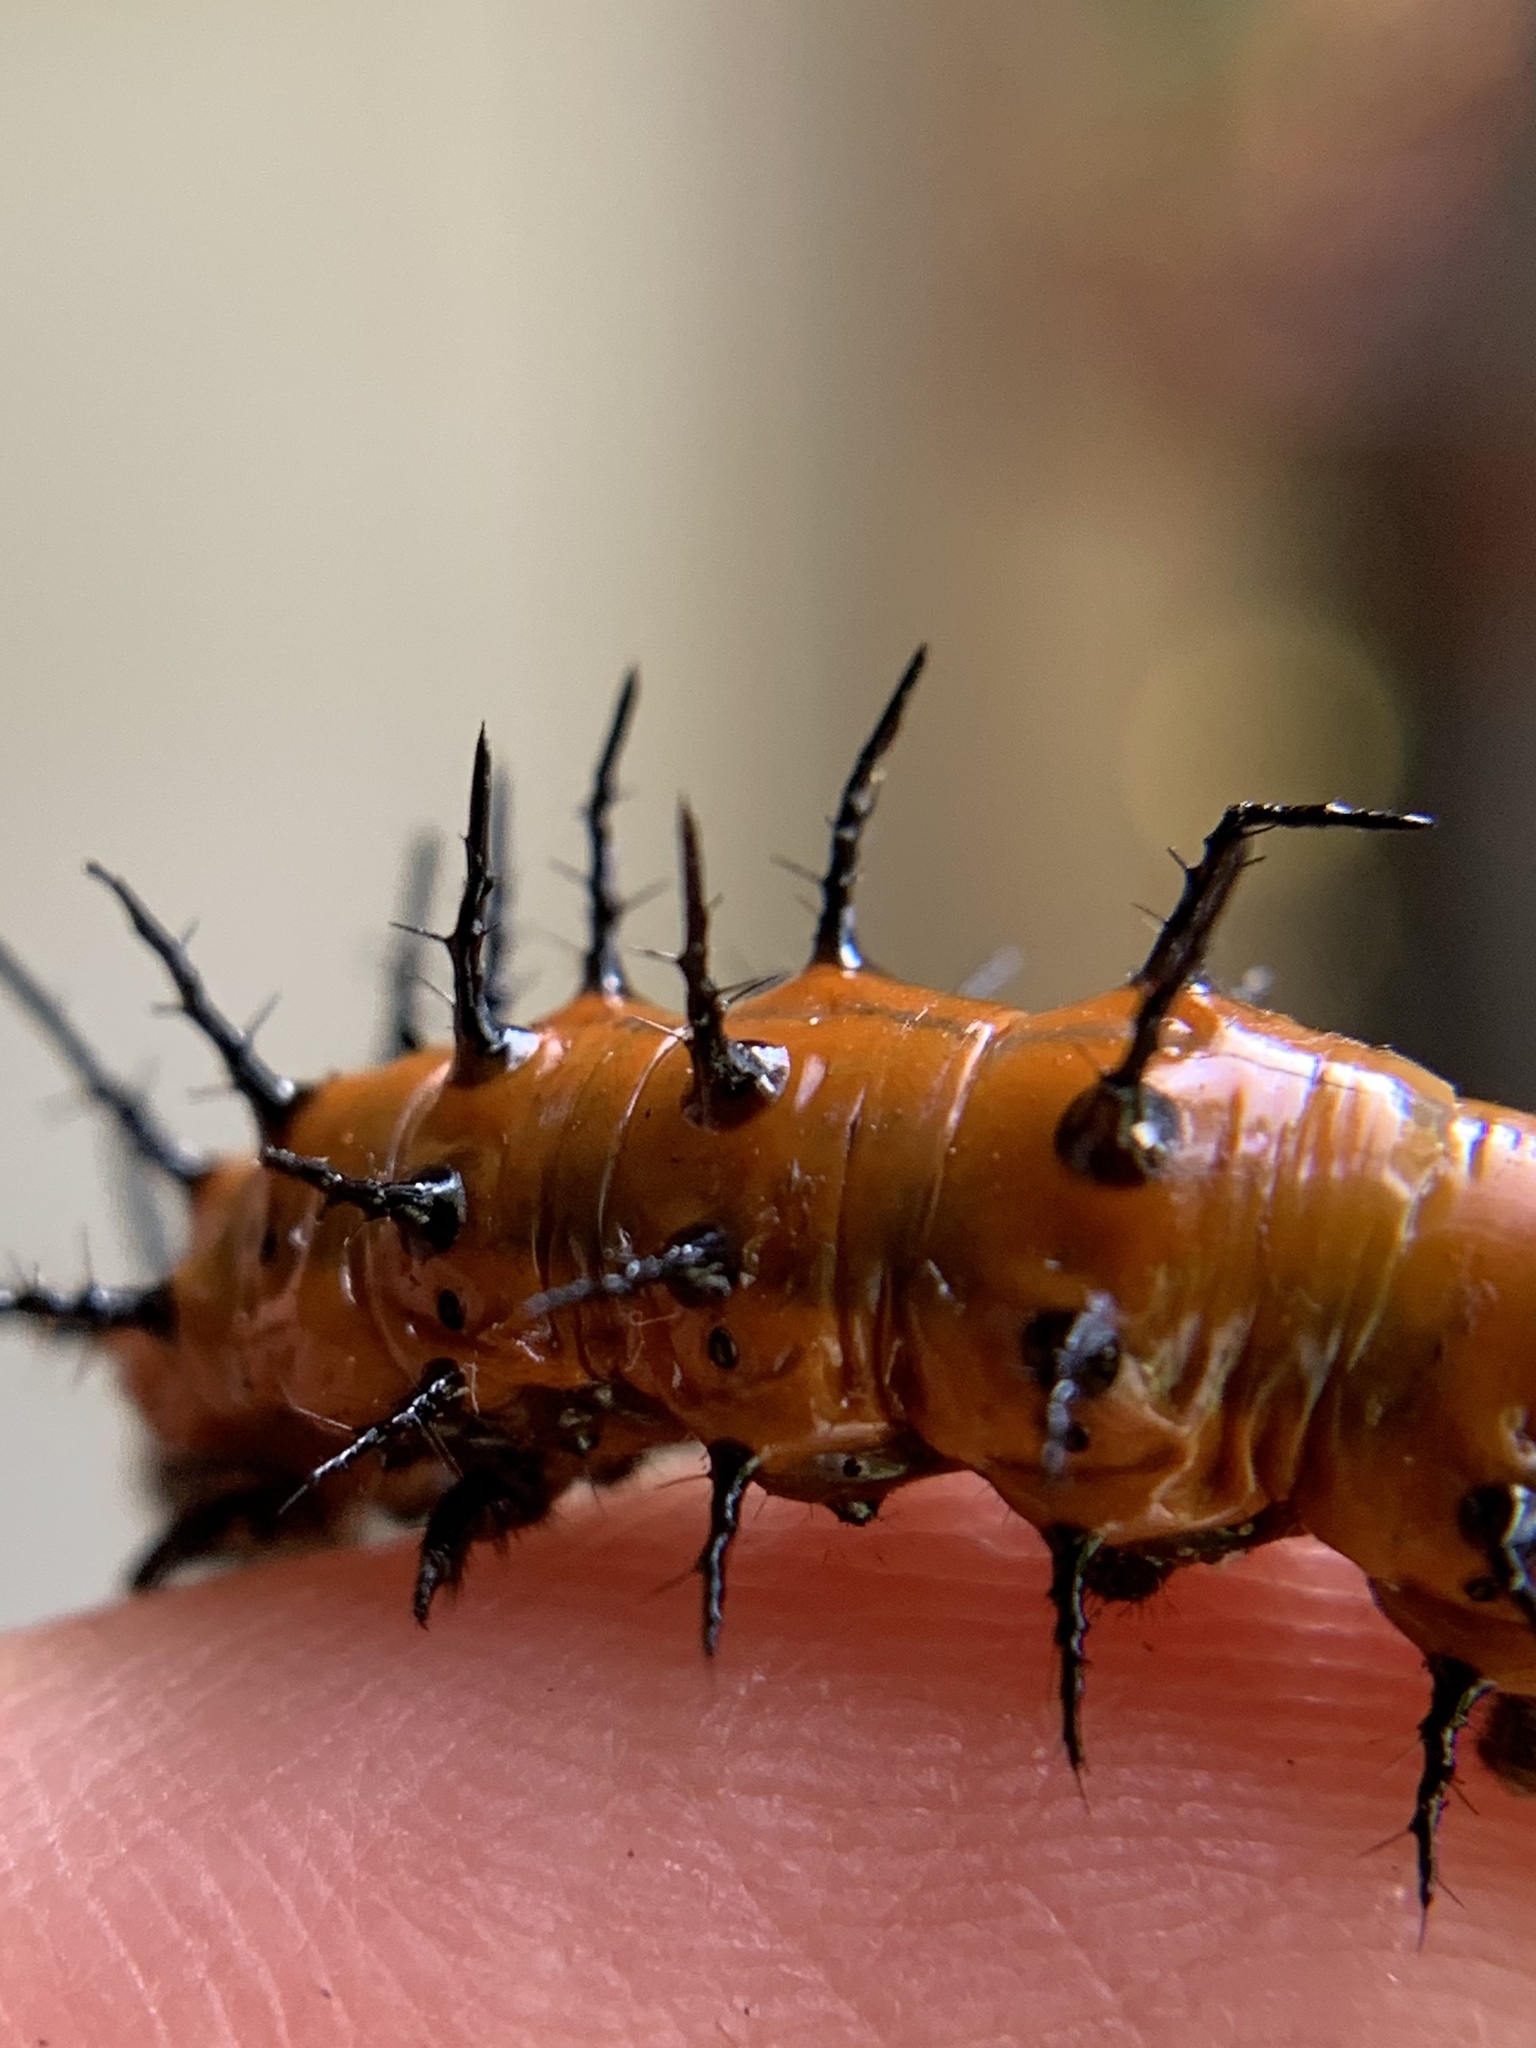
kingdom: Animalia
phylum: Arthropoda
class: Insecta
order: Lepidoptera
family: Nymphalidae
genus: Dione
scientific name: Dione vanillae
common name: Gulf fritillary
